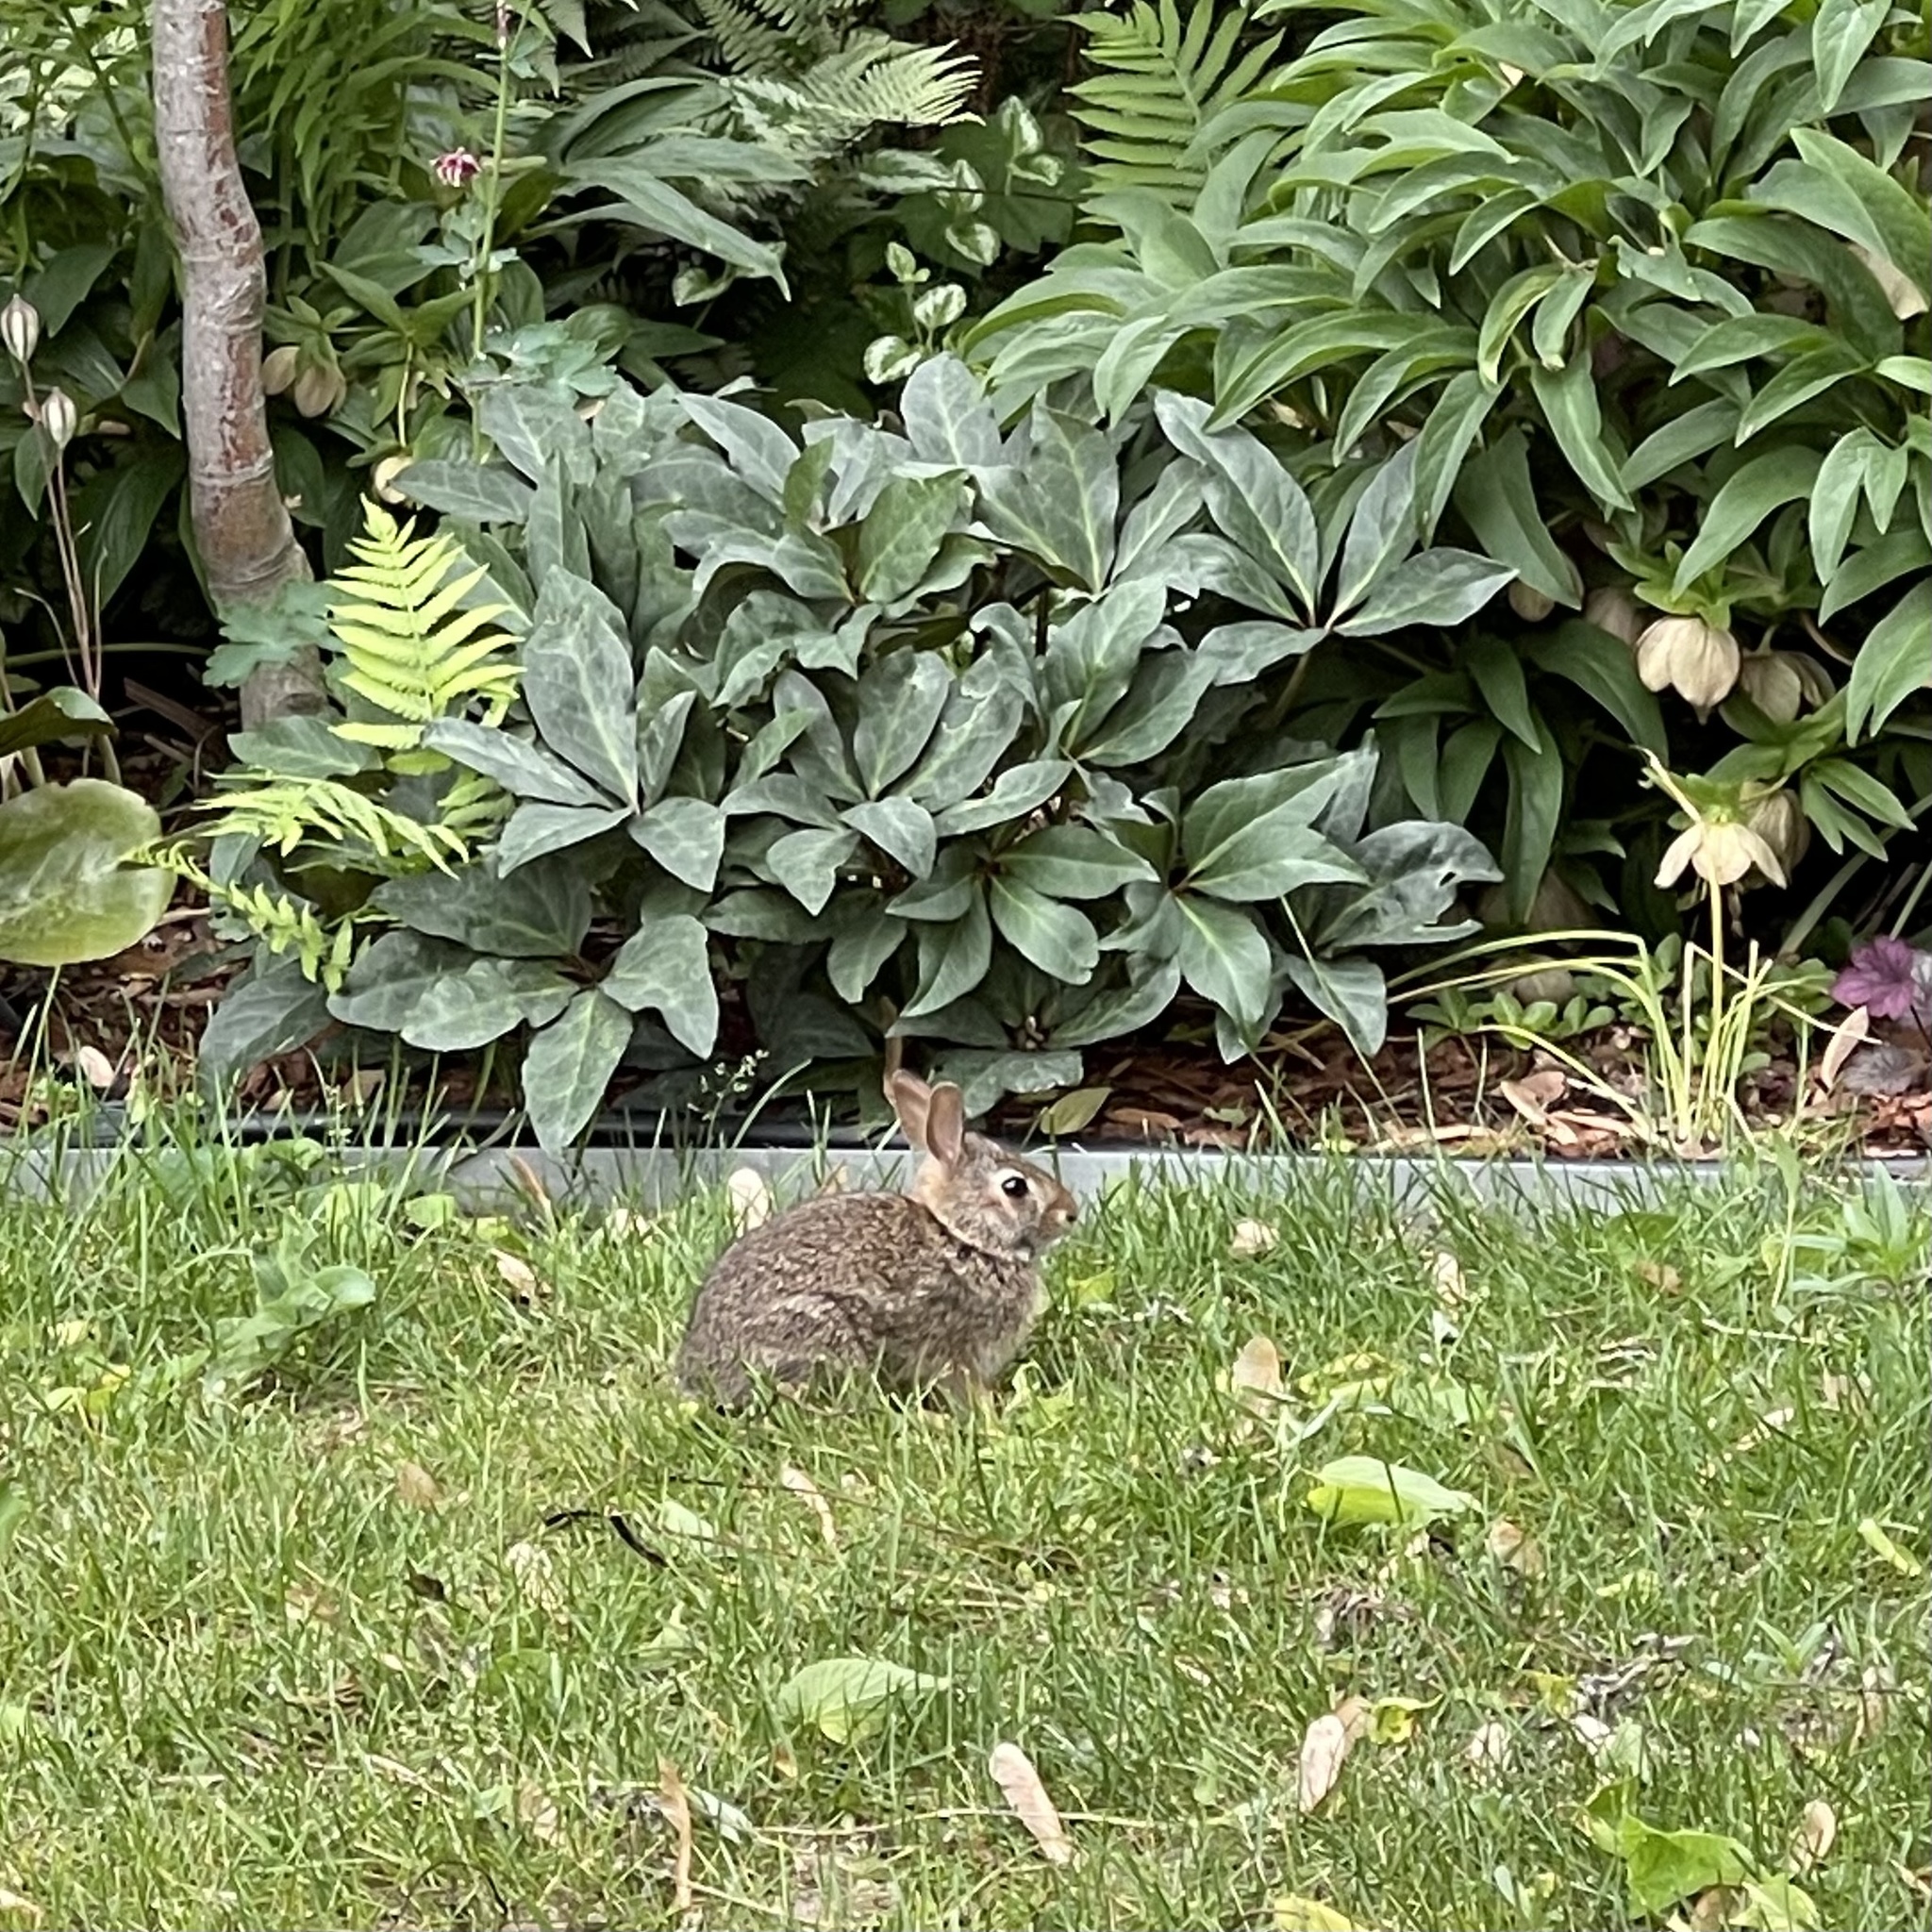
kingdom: Animalia
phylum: Chordata
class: Mammalia
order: Lagomorpha
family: Leporidae
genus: Sylvilagus
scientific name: Sylvilagus floridanus
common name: Eastern cottontail
